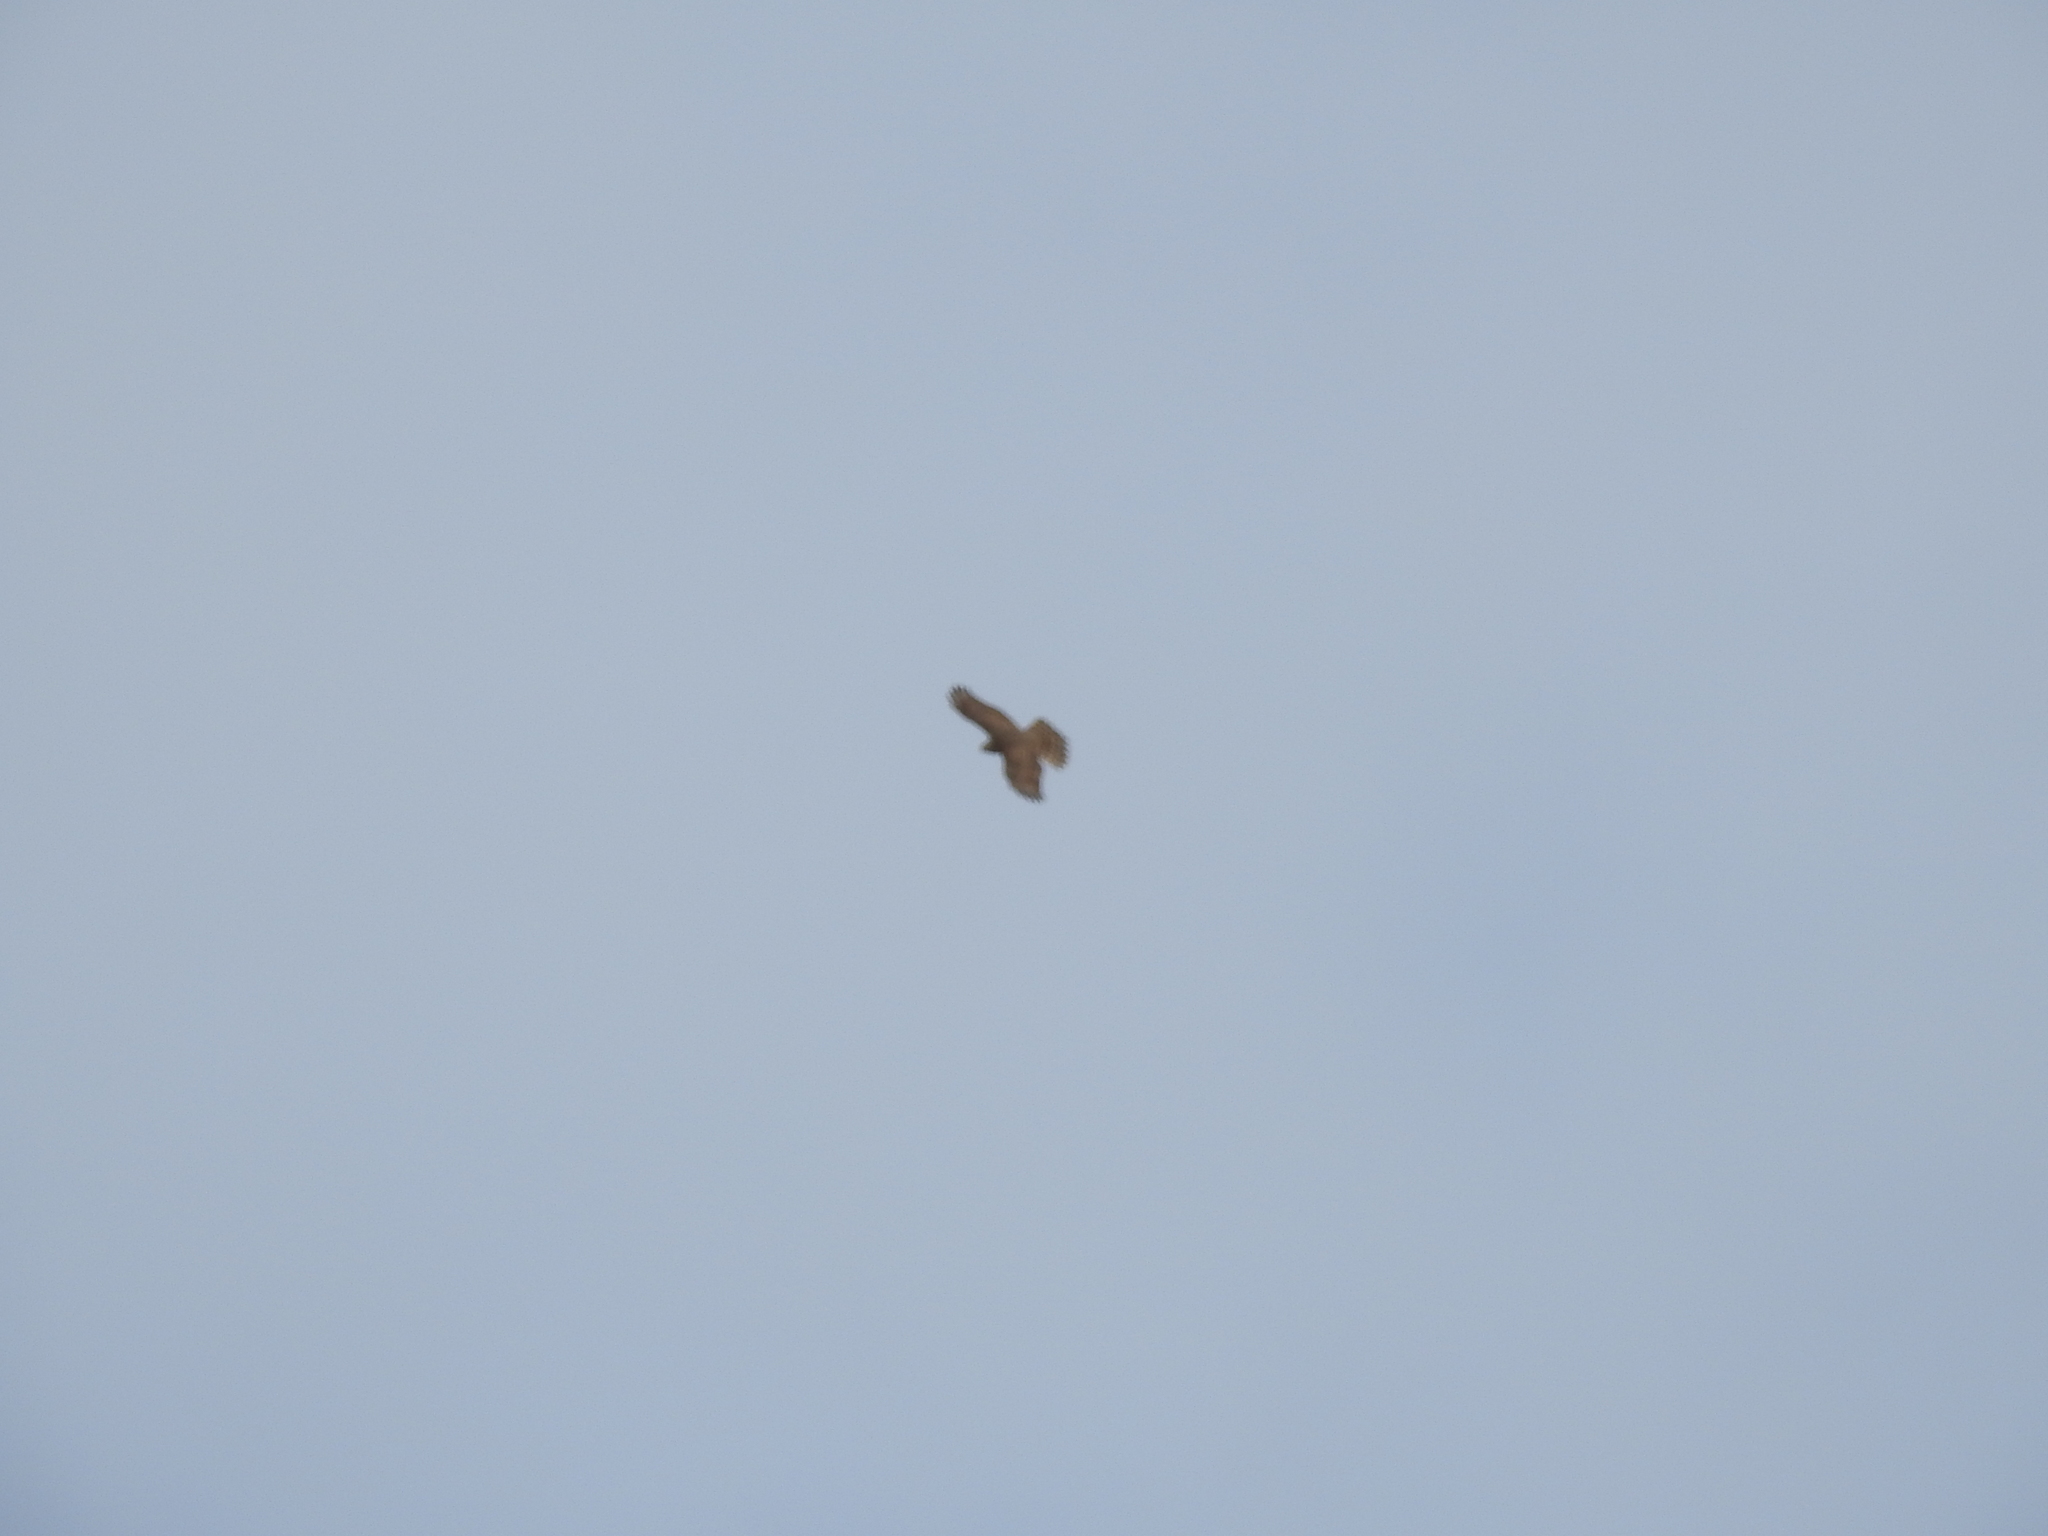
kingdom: Animalia
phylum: Chordata
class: Aves
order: Accipitriformes
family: Accipitridae
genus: Accipiter
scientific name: Accipiter gentilis
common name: Northern goshawk
